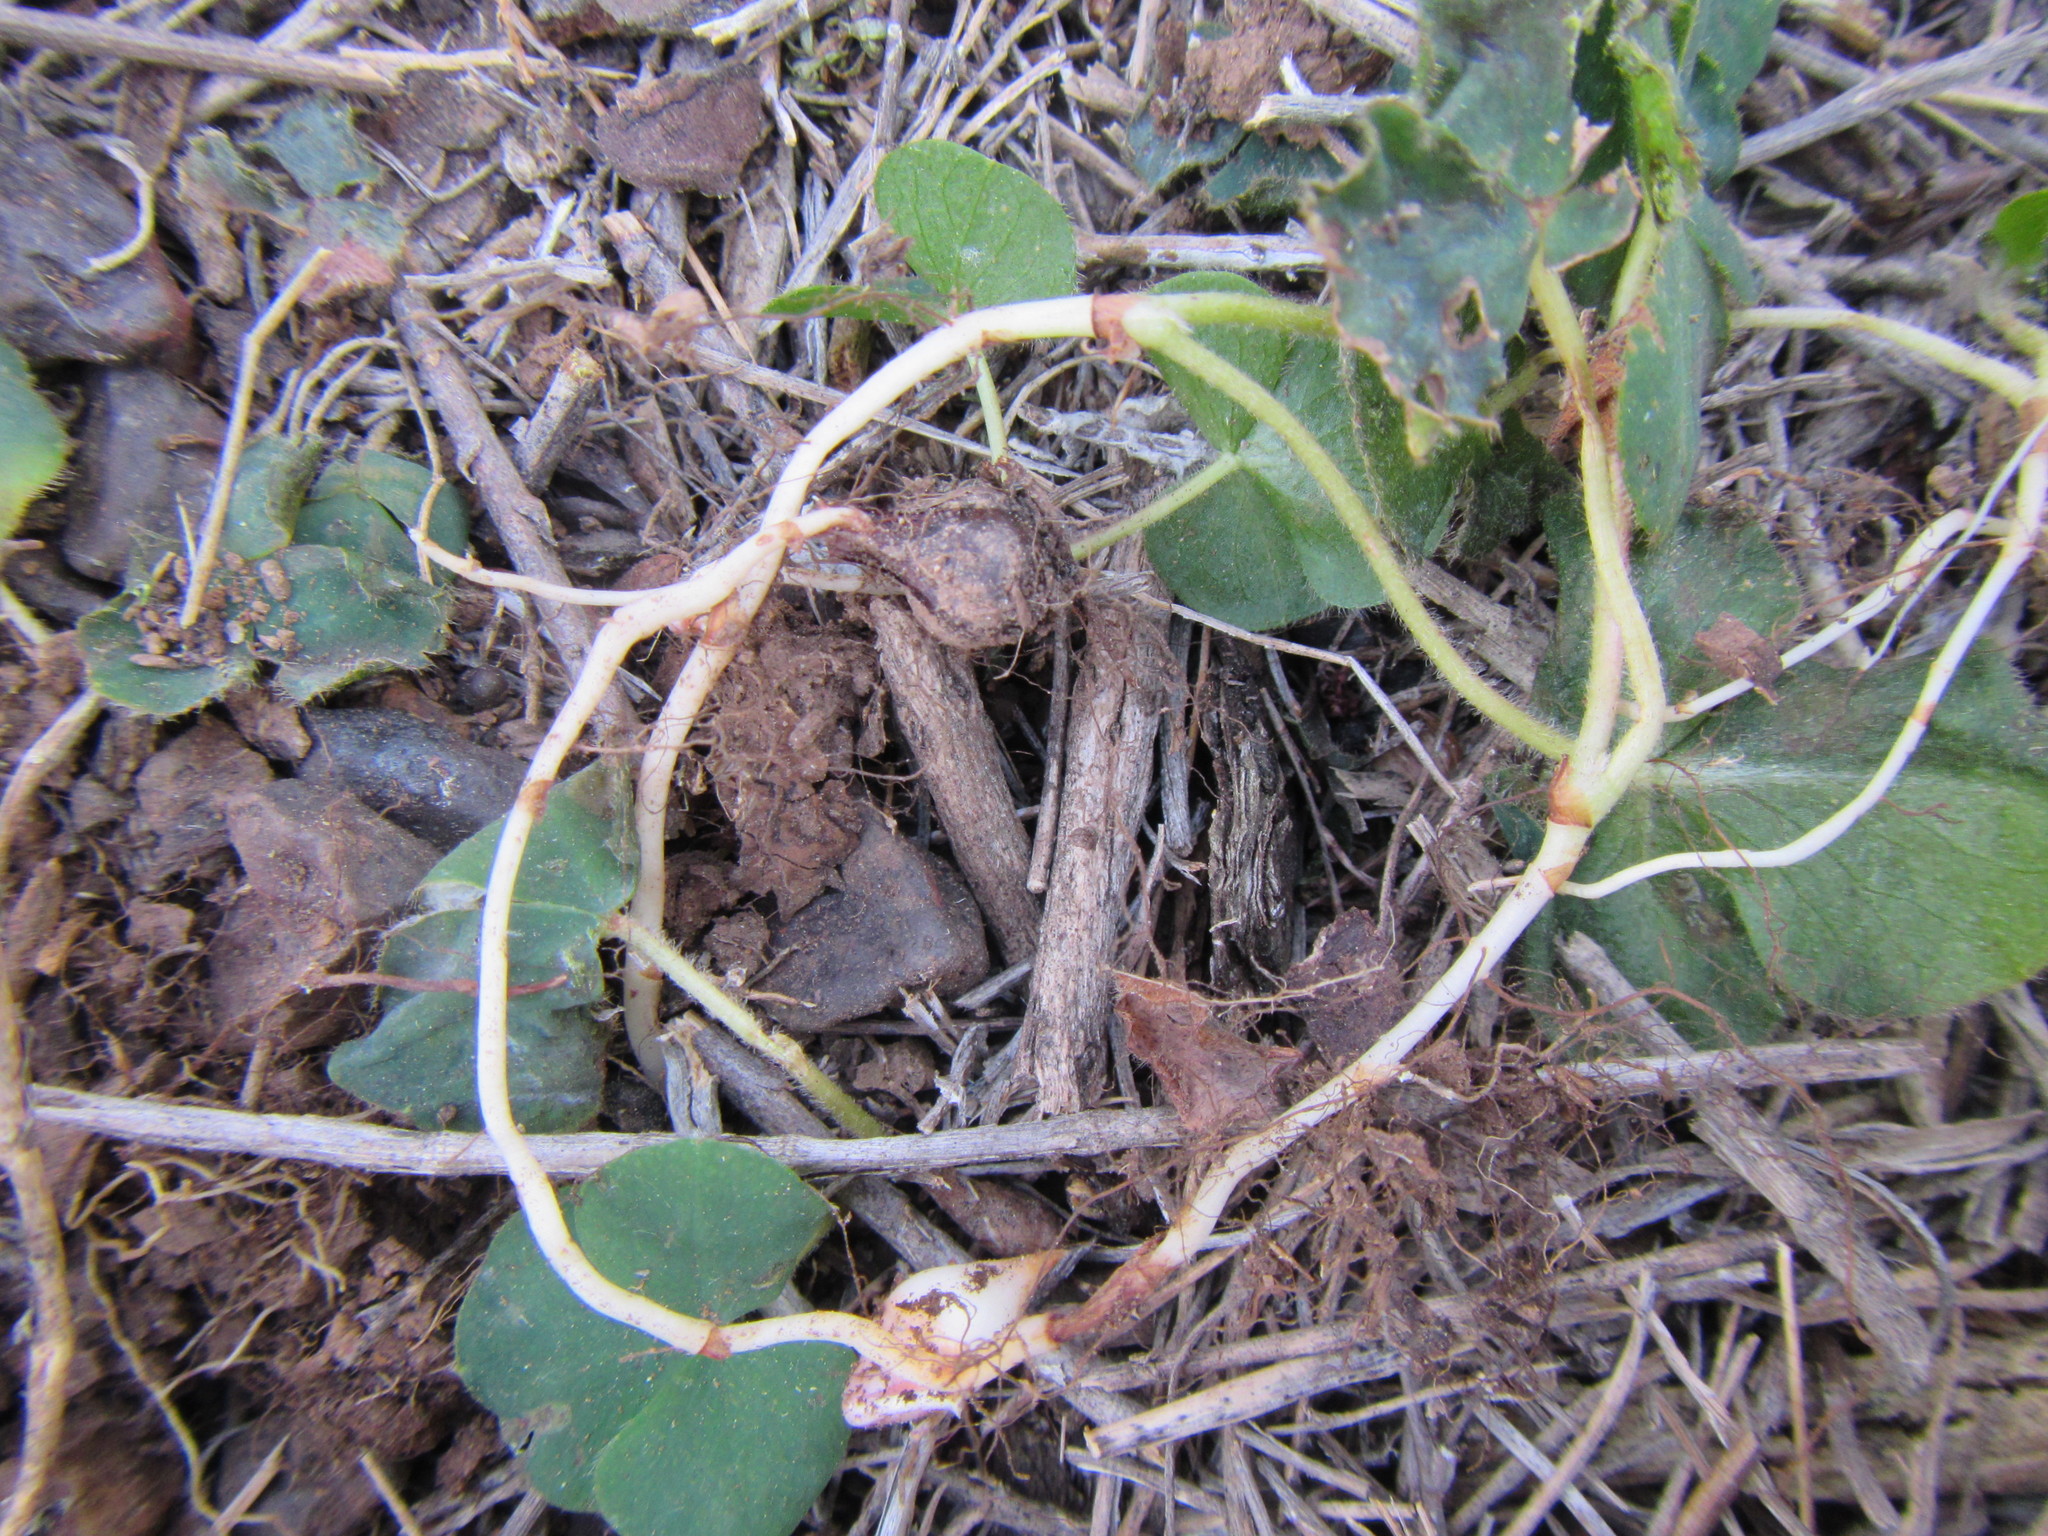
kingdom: Plantae
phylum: Tracheophyta
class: Magnoliopsida
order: Oxalidales
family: Oxalidaceae
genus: Oxalis
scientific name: Oxalis purpurea
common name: Purple woodsorrel
